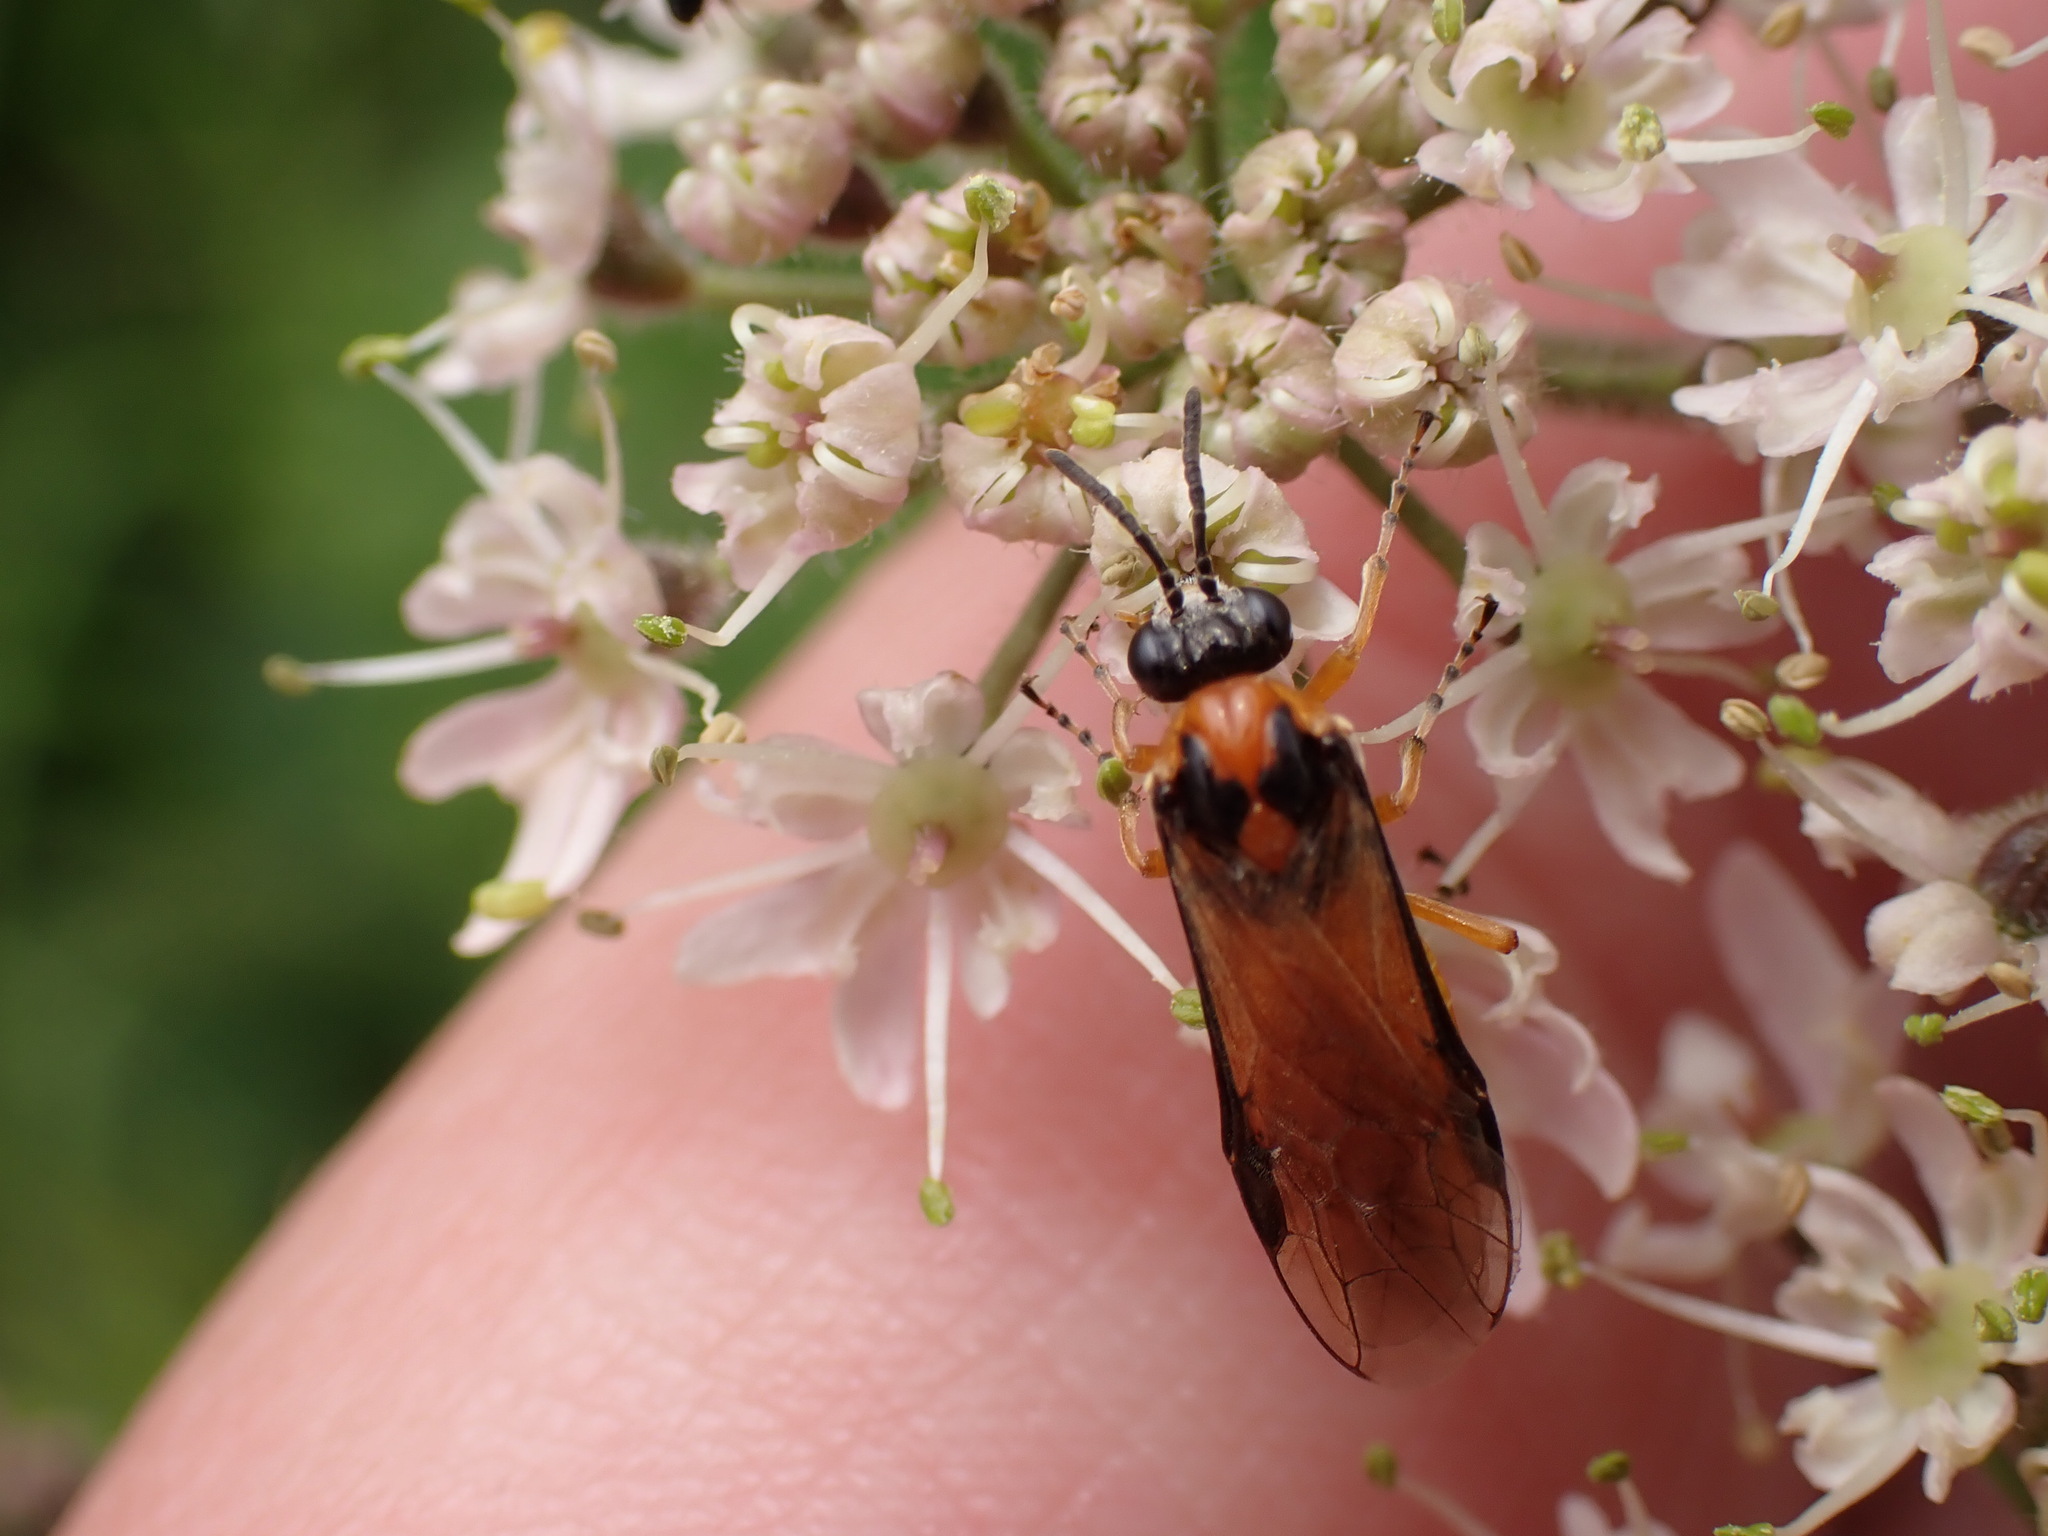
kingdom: Animalia
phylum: Arthropoda
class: Insecta
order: Hymenoptera
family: Tenthredinidae
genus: Athalia
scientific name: Athalia rosae
